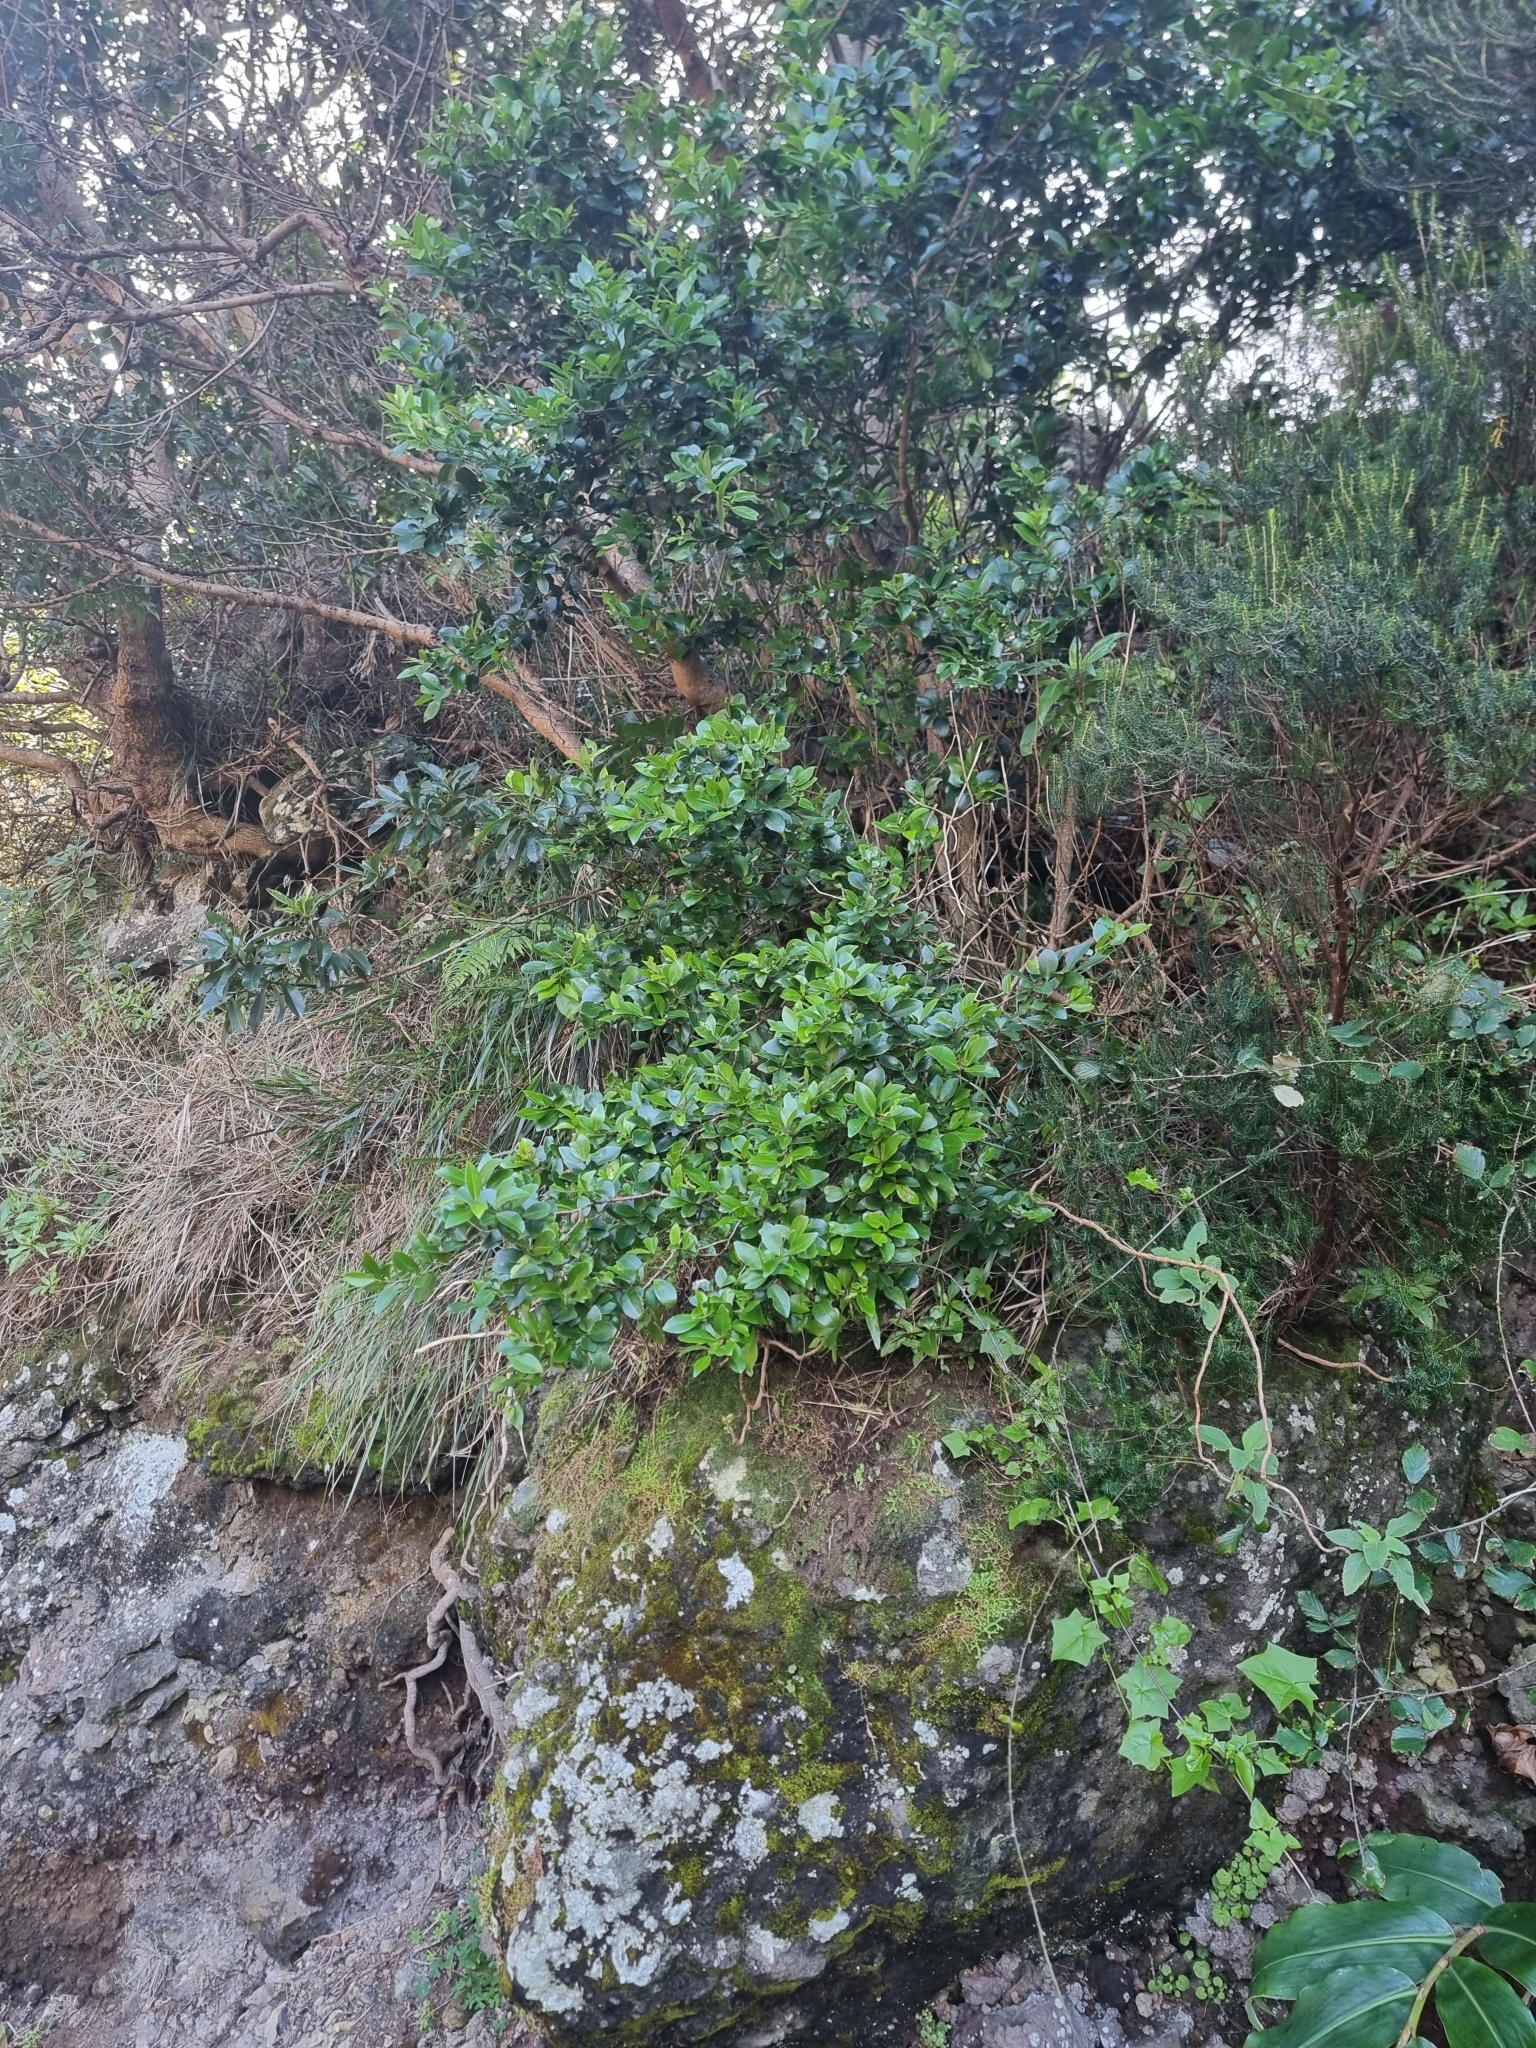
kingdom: Plantae
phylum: Tracheophyta
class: Magnoliopsida
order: Celastrales
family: Celastraceae
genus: Gymnosporia
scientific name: Gymnosporia dryandri
